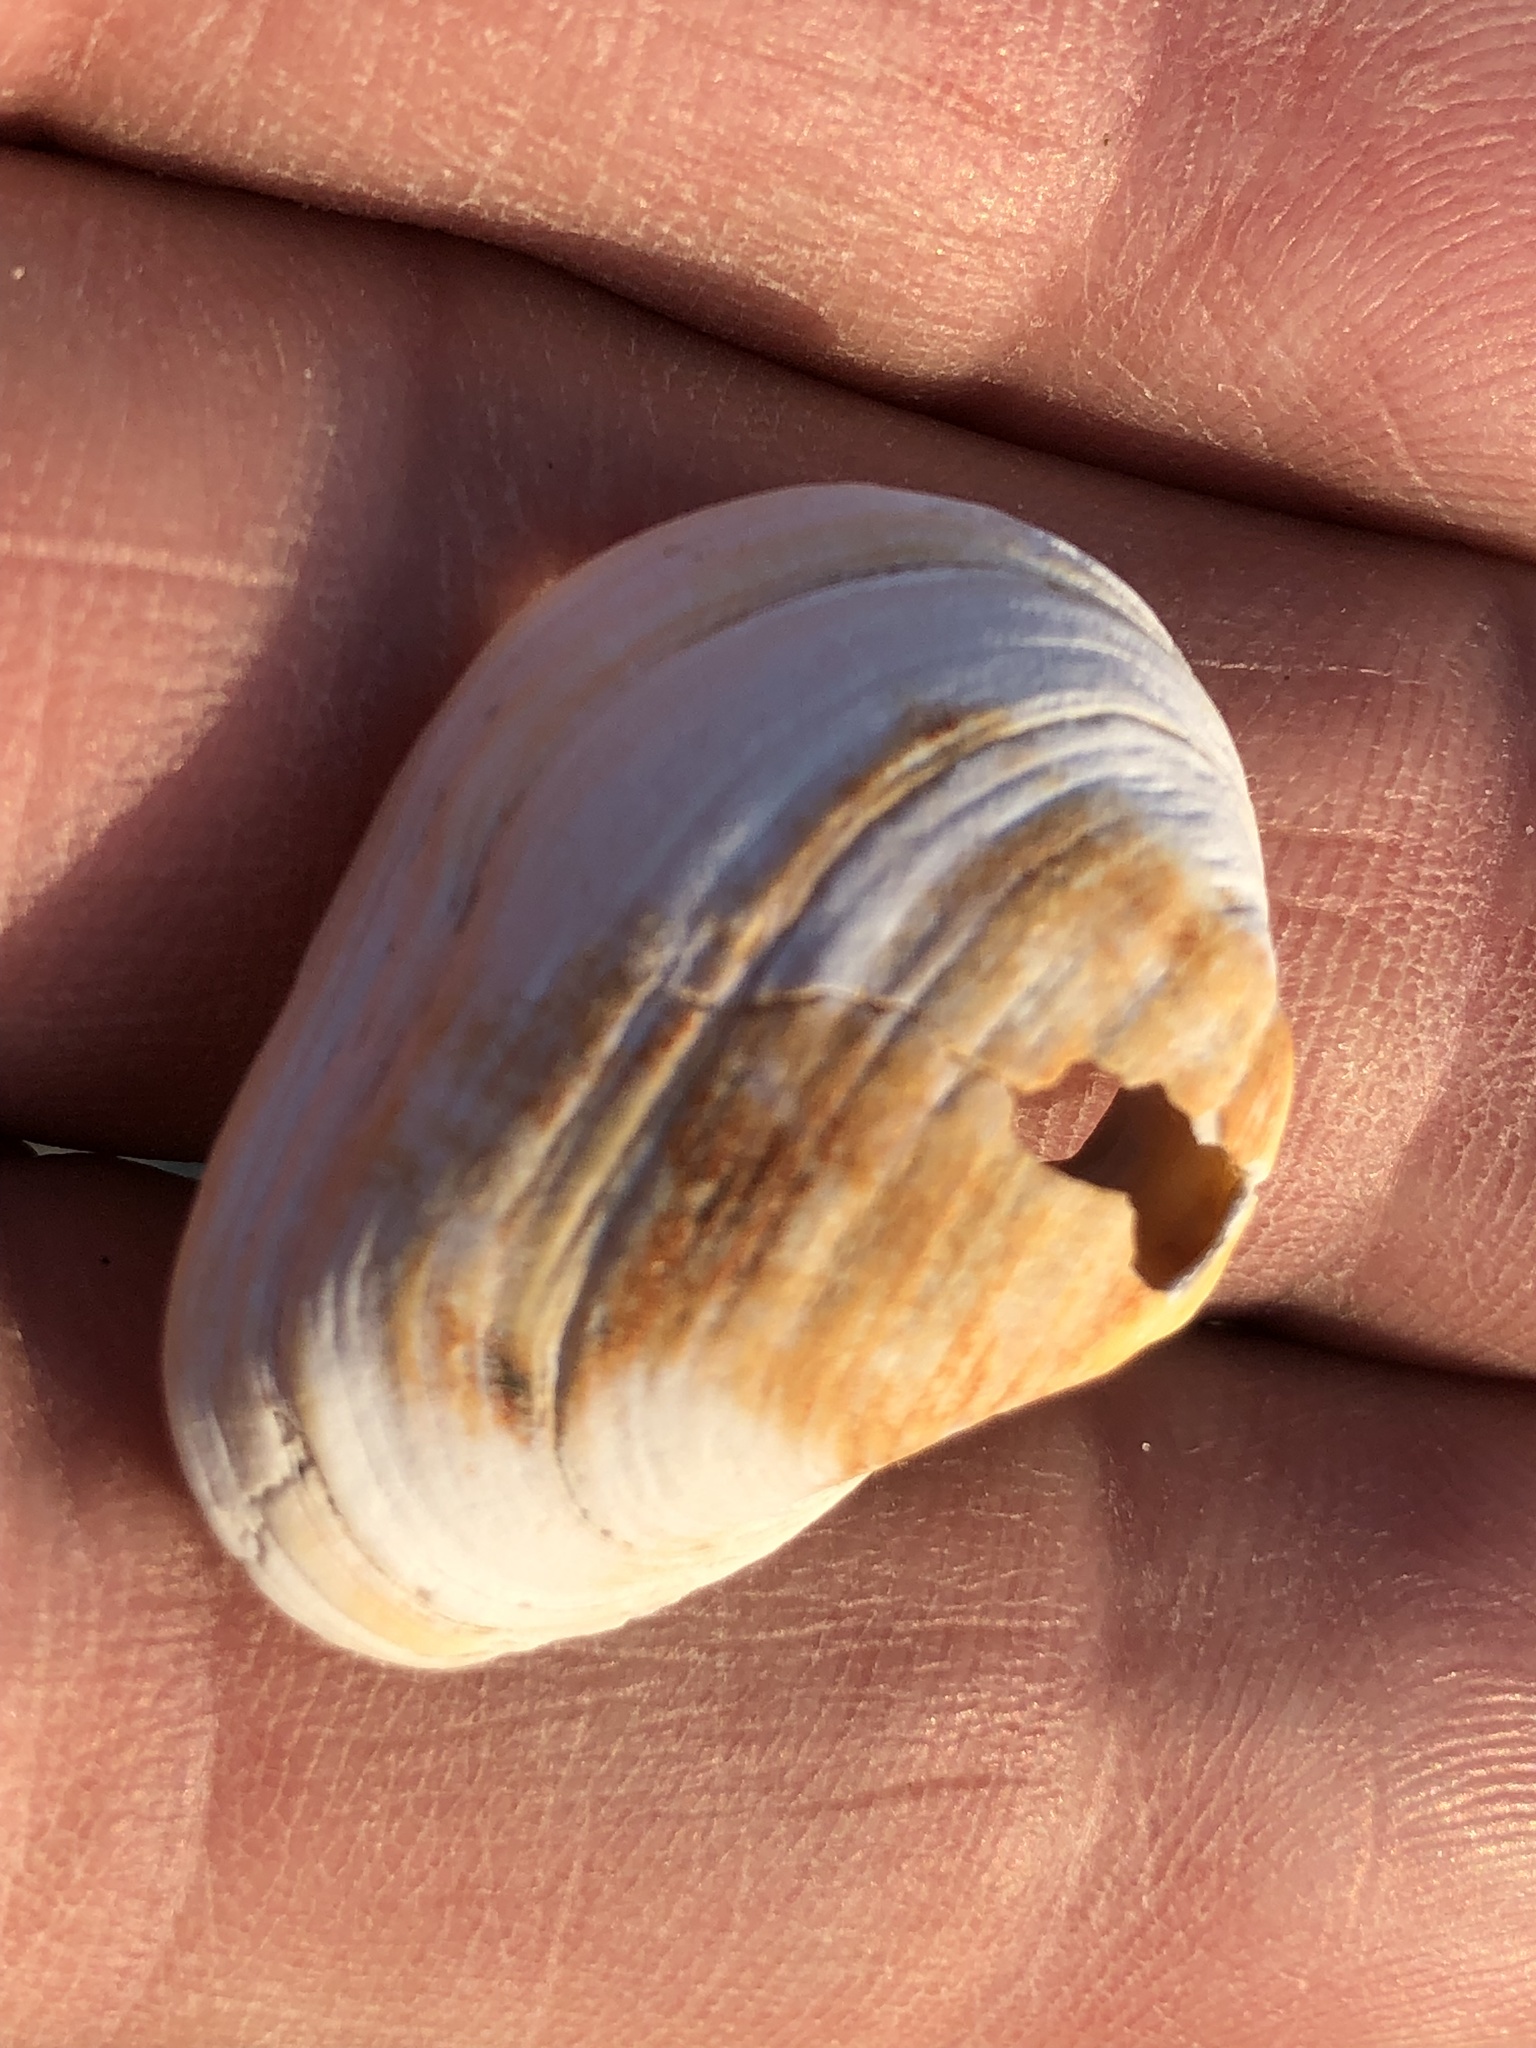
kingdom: Animalia
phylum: Mollusca
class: Bivalvia
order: Venerida
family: Veneridae
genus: Petricola
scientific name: Petricola carditoides
